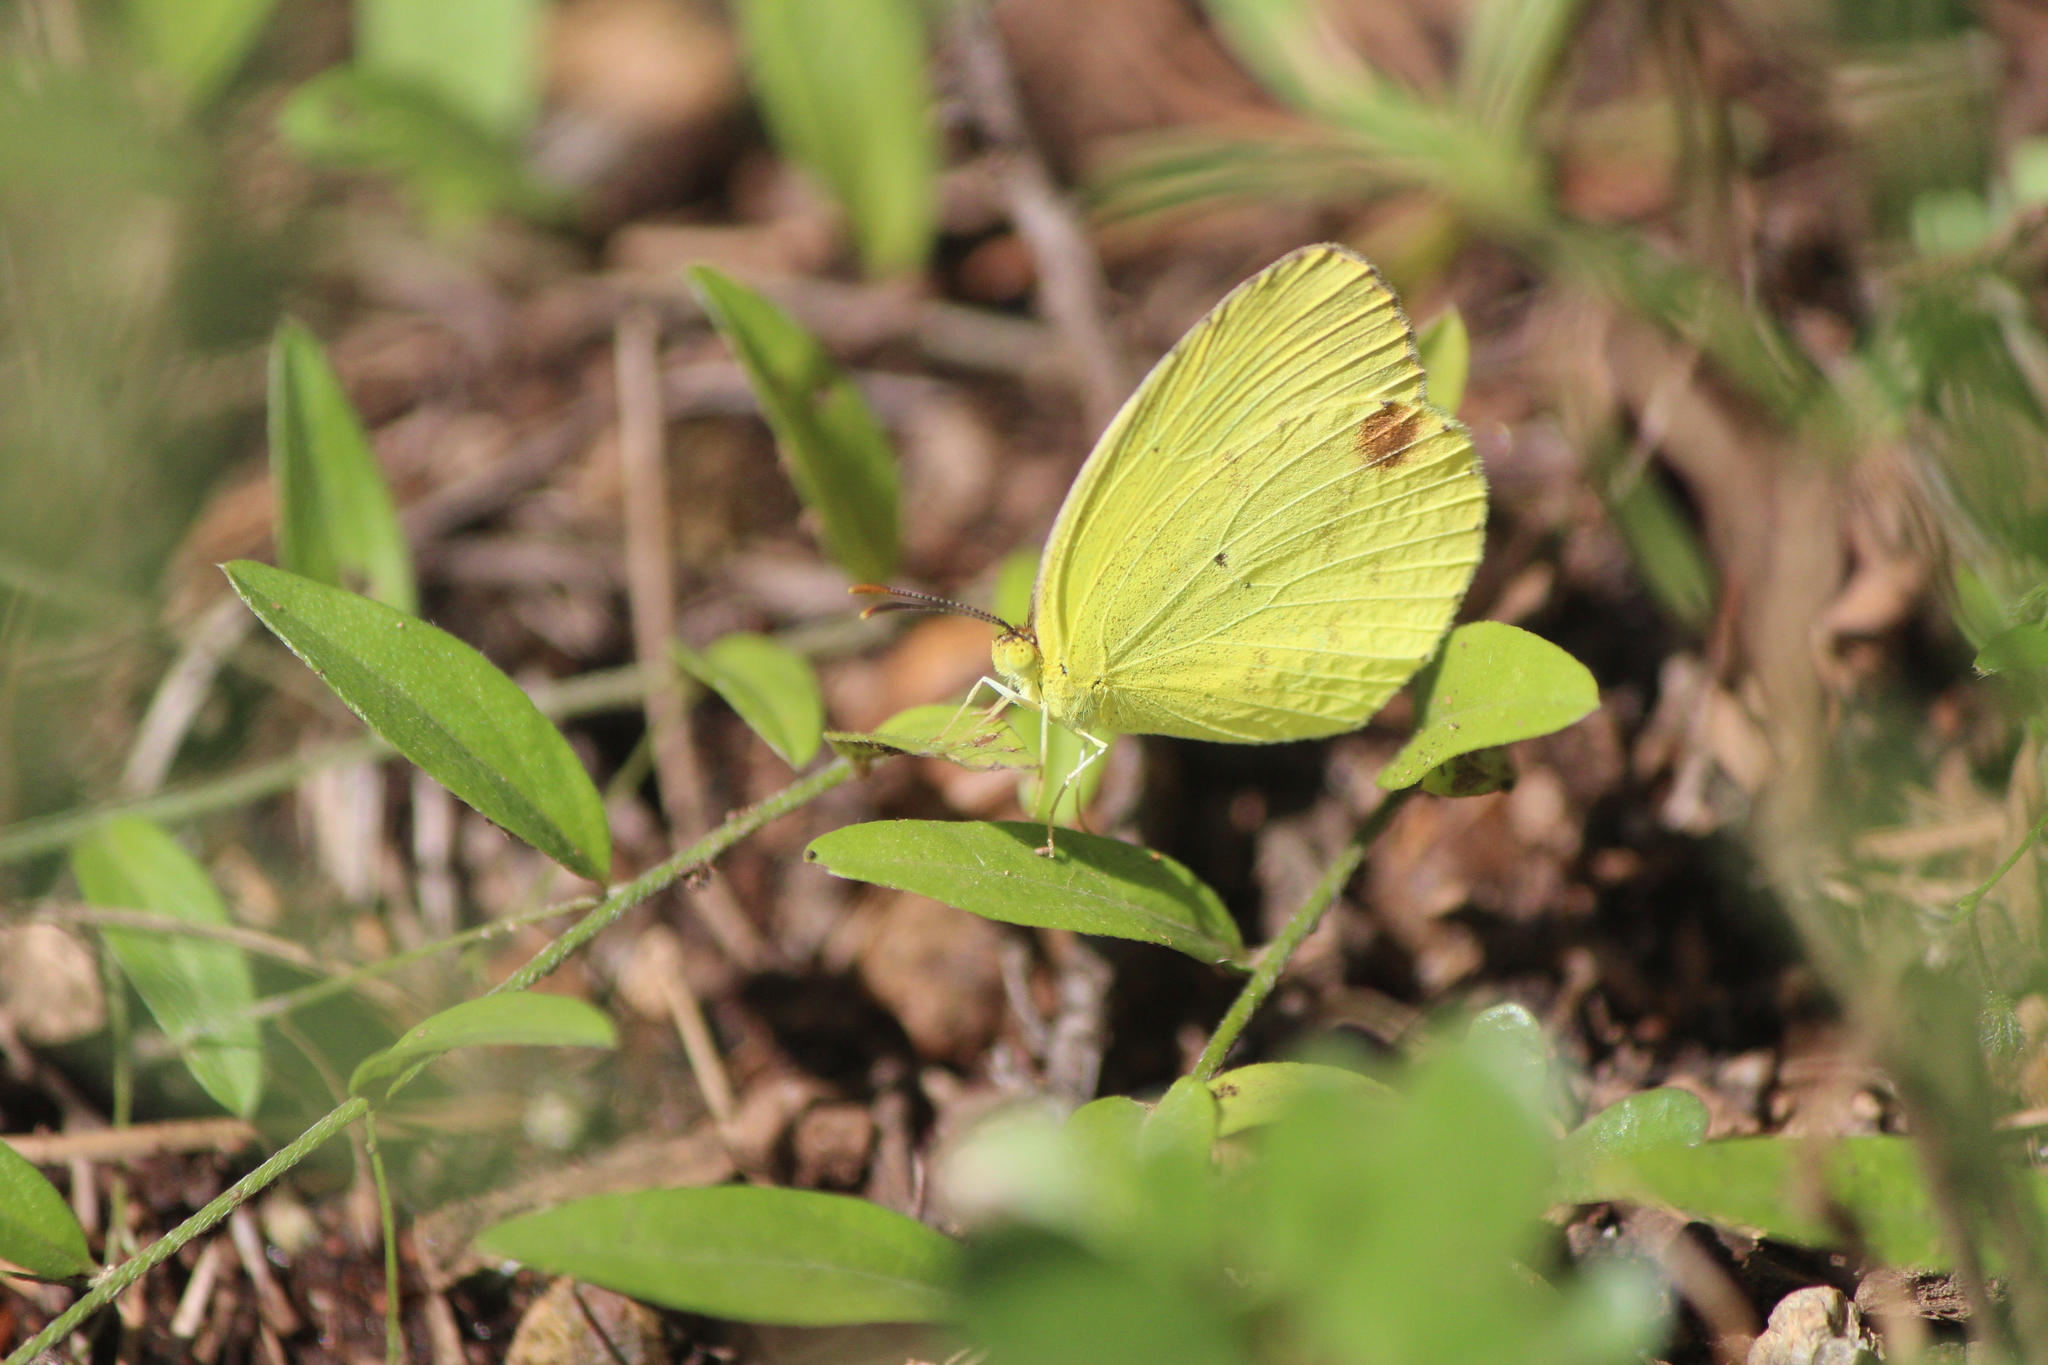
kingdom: Animalia
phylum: Arthropoda
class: Insecta
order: Lepidoptera
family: Pieridae
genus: Pyrisitia
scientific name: Pyrisitia nise
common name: Mimosa yellow
